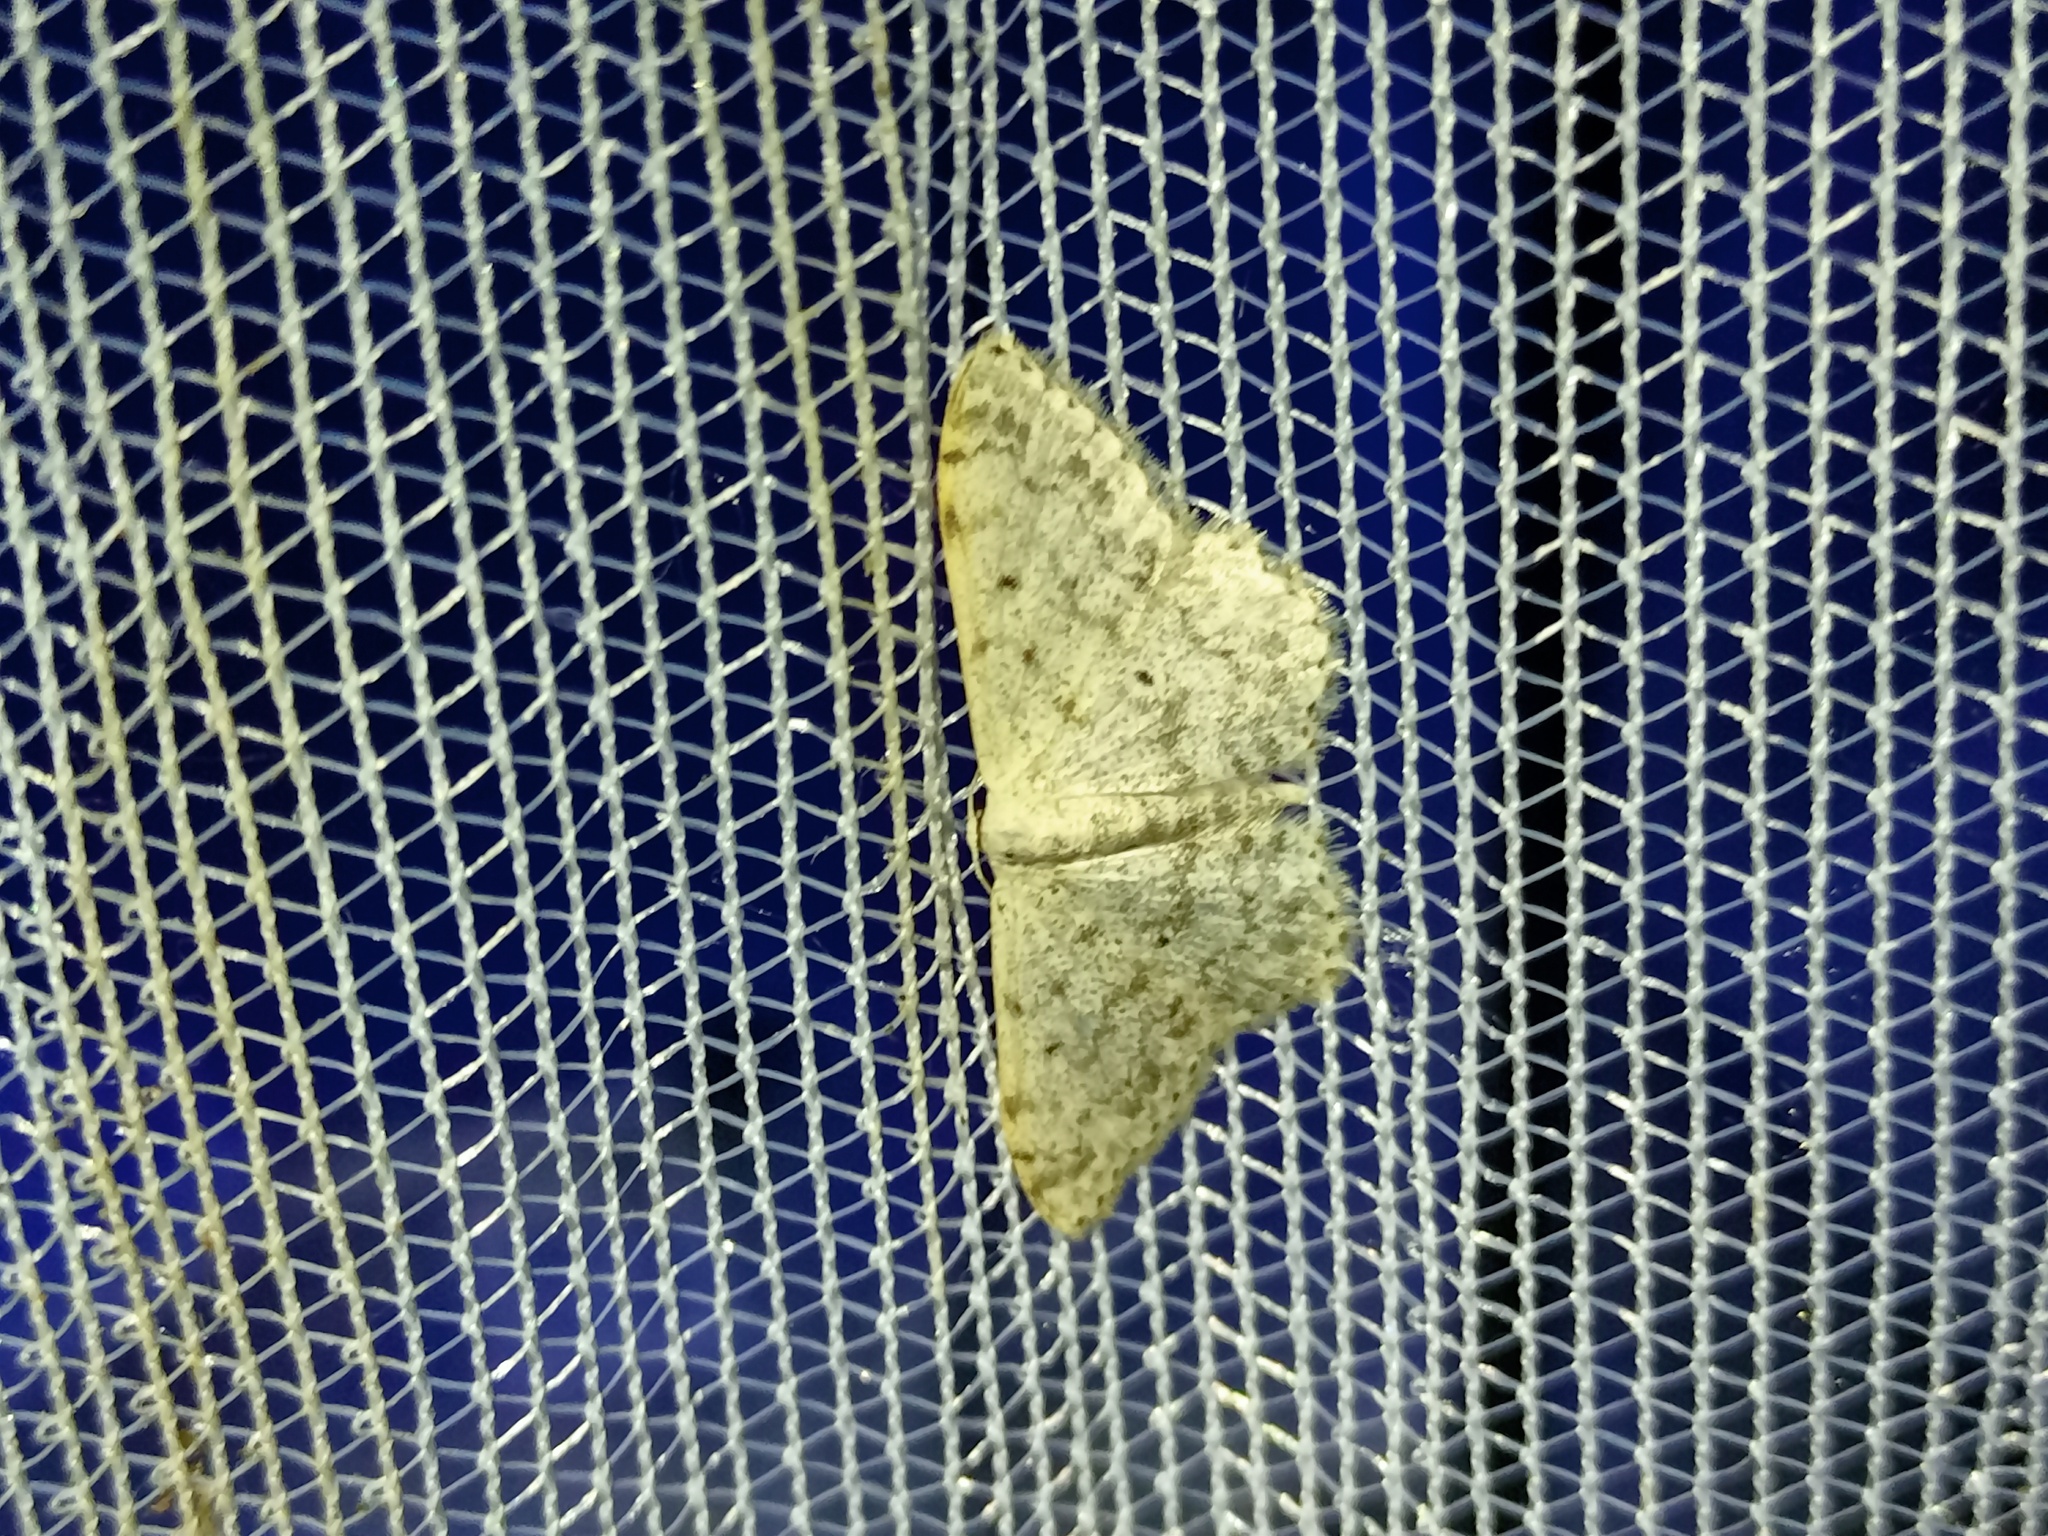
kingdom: Animalia
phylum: Arthropoda
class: Insecta
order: Lepidoptera
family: Geometridae
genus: Scopula
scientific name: Scopula marginepunctata
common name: Mullein wave
